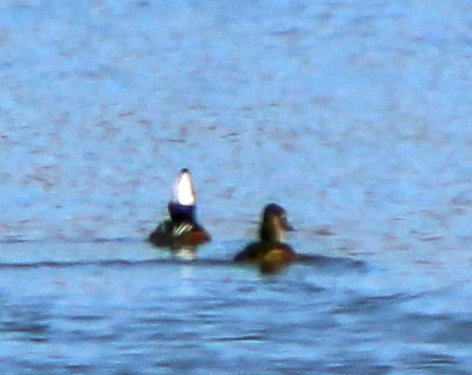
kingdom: Animalia
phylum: Chordata
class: Aves
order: Anseriformes
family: Anatidae
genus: Lophodytes
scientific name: Lophodytes cucullatus
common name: Hooded merganser
